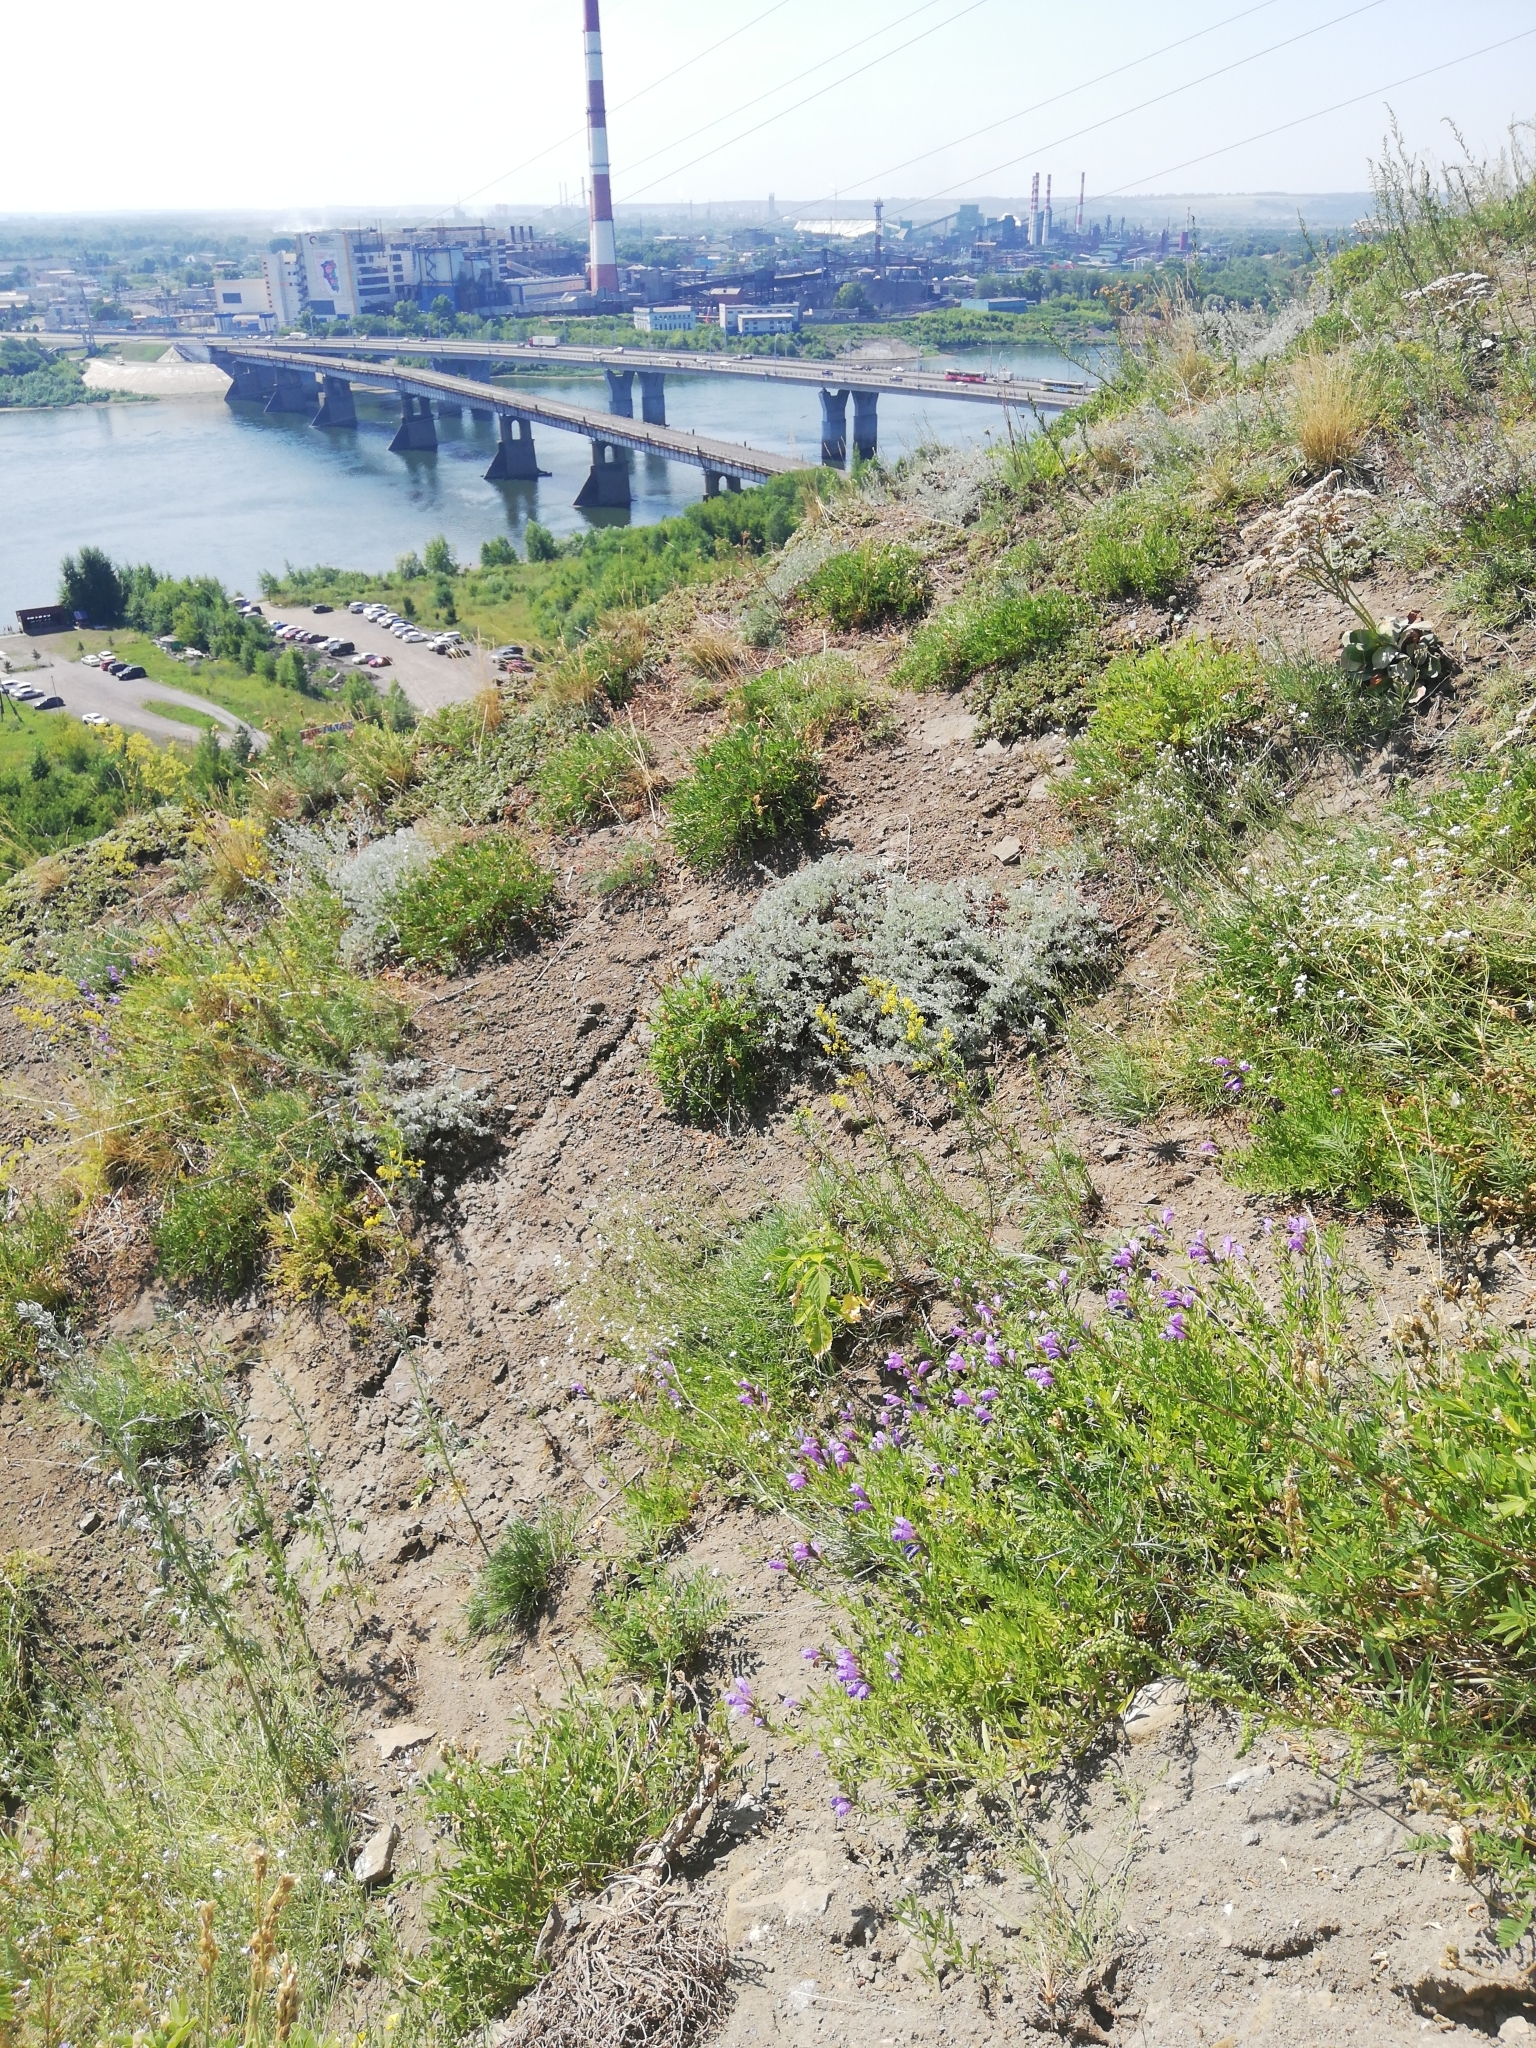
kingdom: Plantae
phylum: Tracheophyta
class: Magnoliopsida
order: Lamiales
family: Lamiaceae
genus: Dracocephalum
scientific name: Dracocephalum peregrinum
